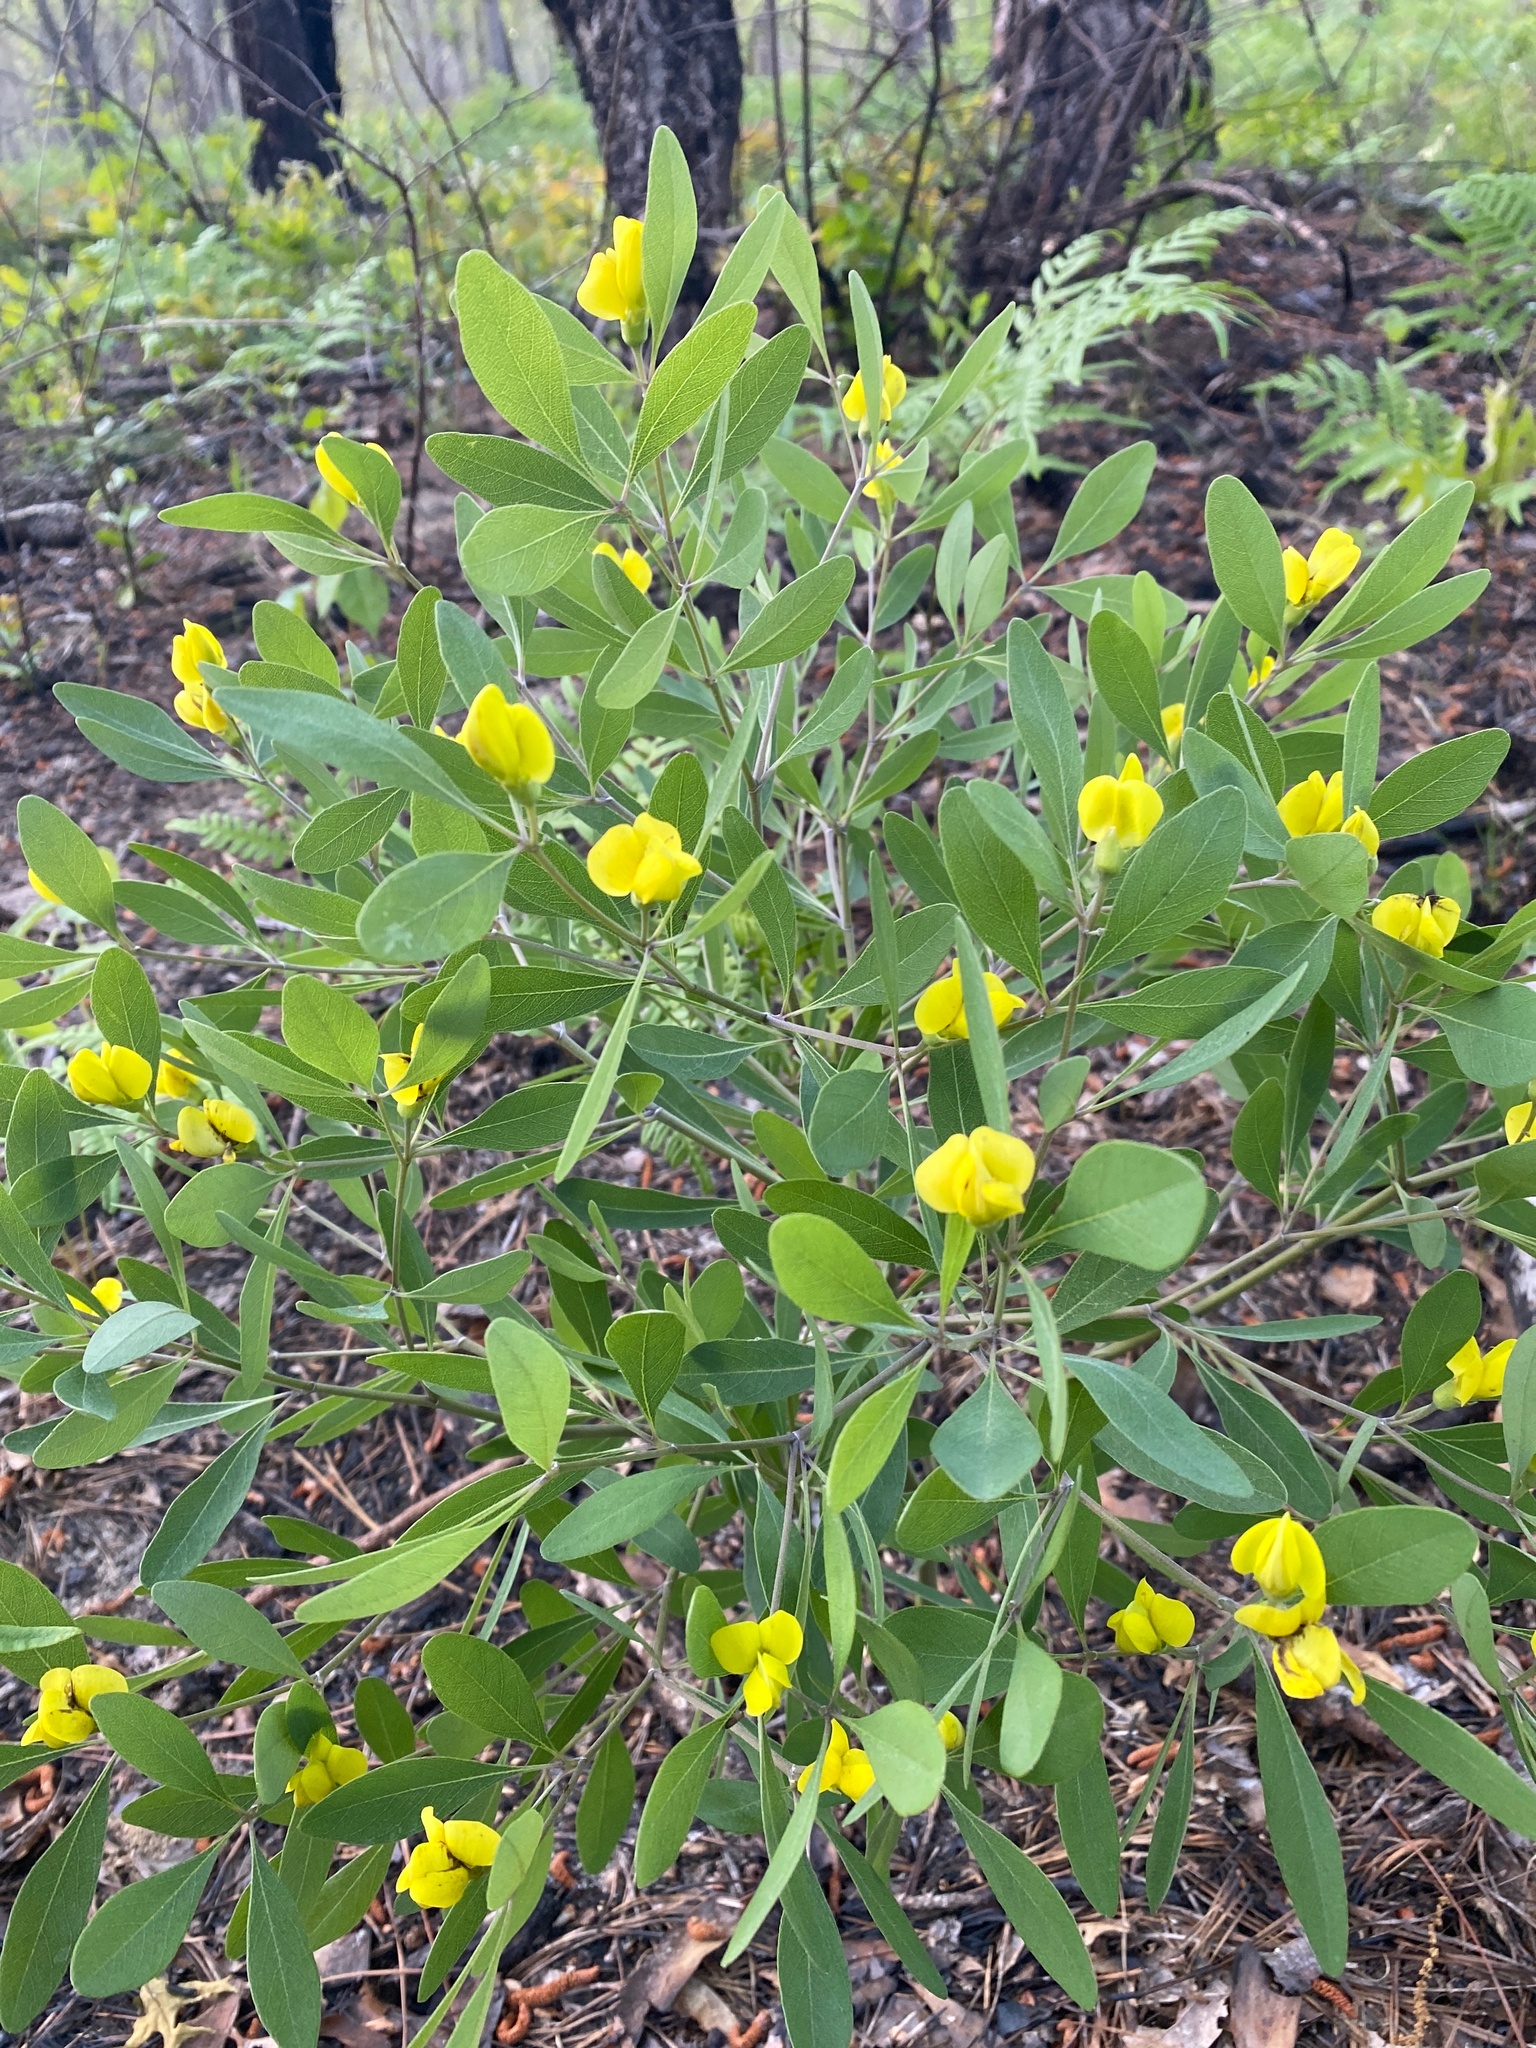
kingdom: Plantae
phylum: Tracheophyta
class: Magnoliopsida
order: Fabales
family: Fabaceae
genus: Baptisia
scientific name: Baptisia lanceolata
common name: Gopherweed
